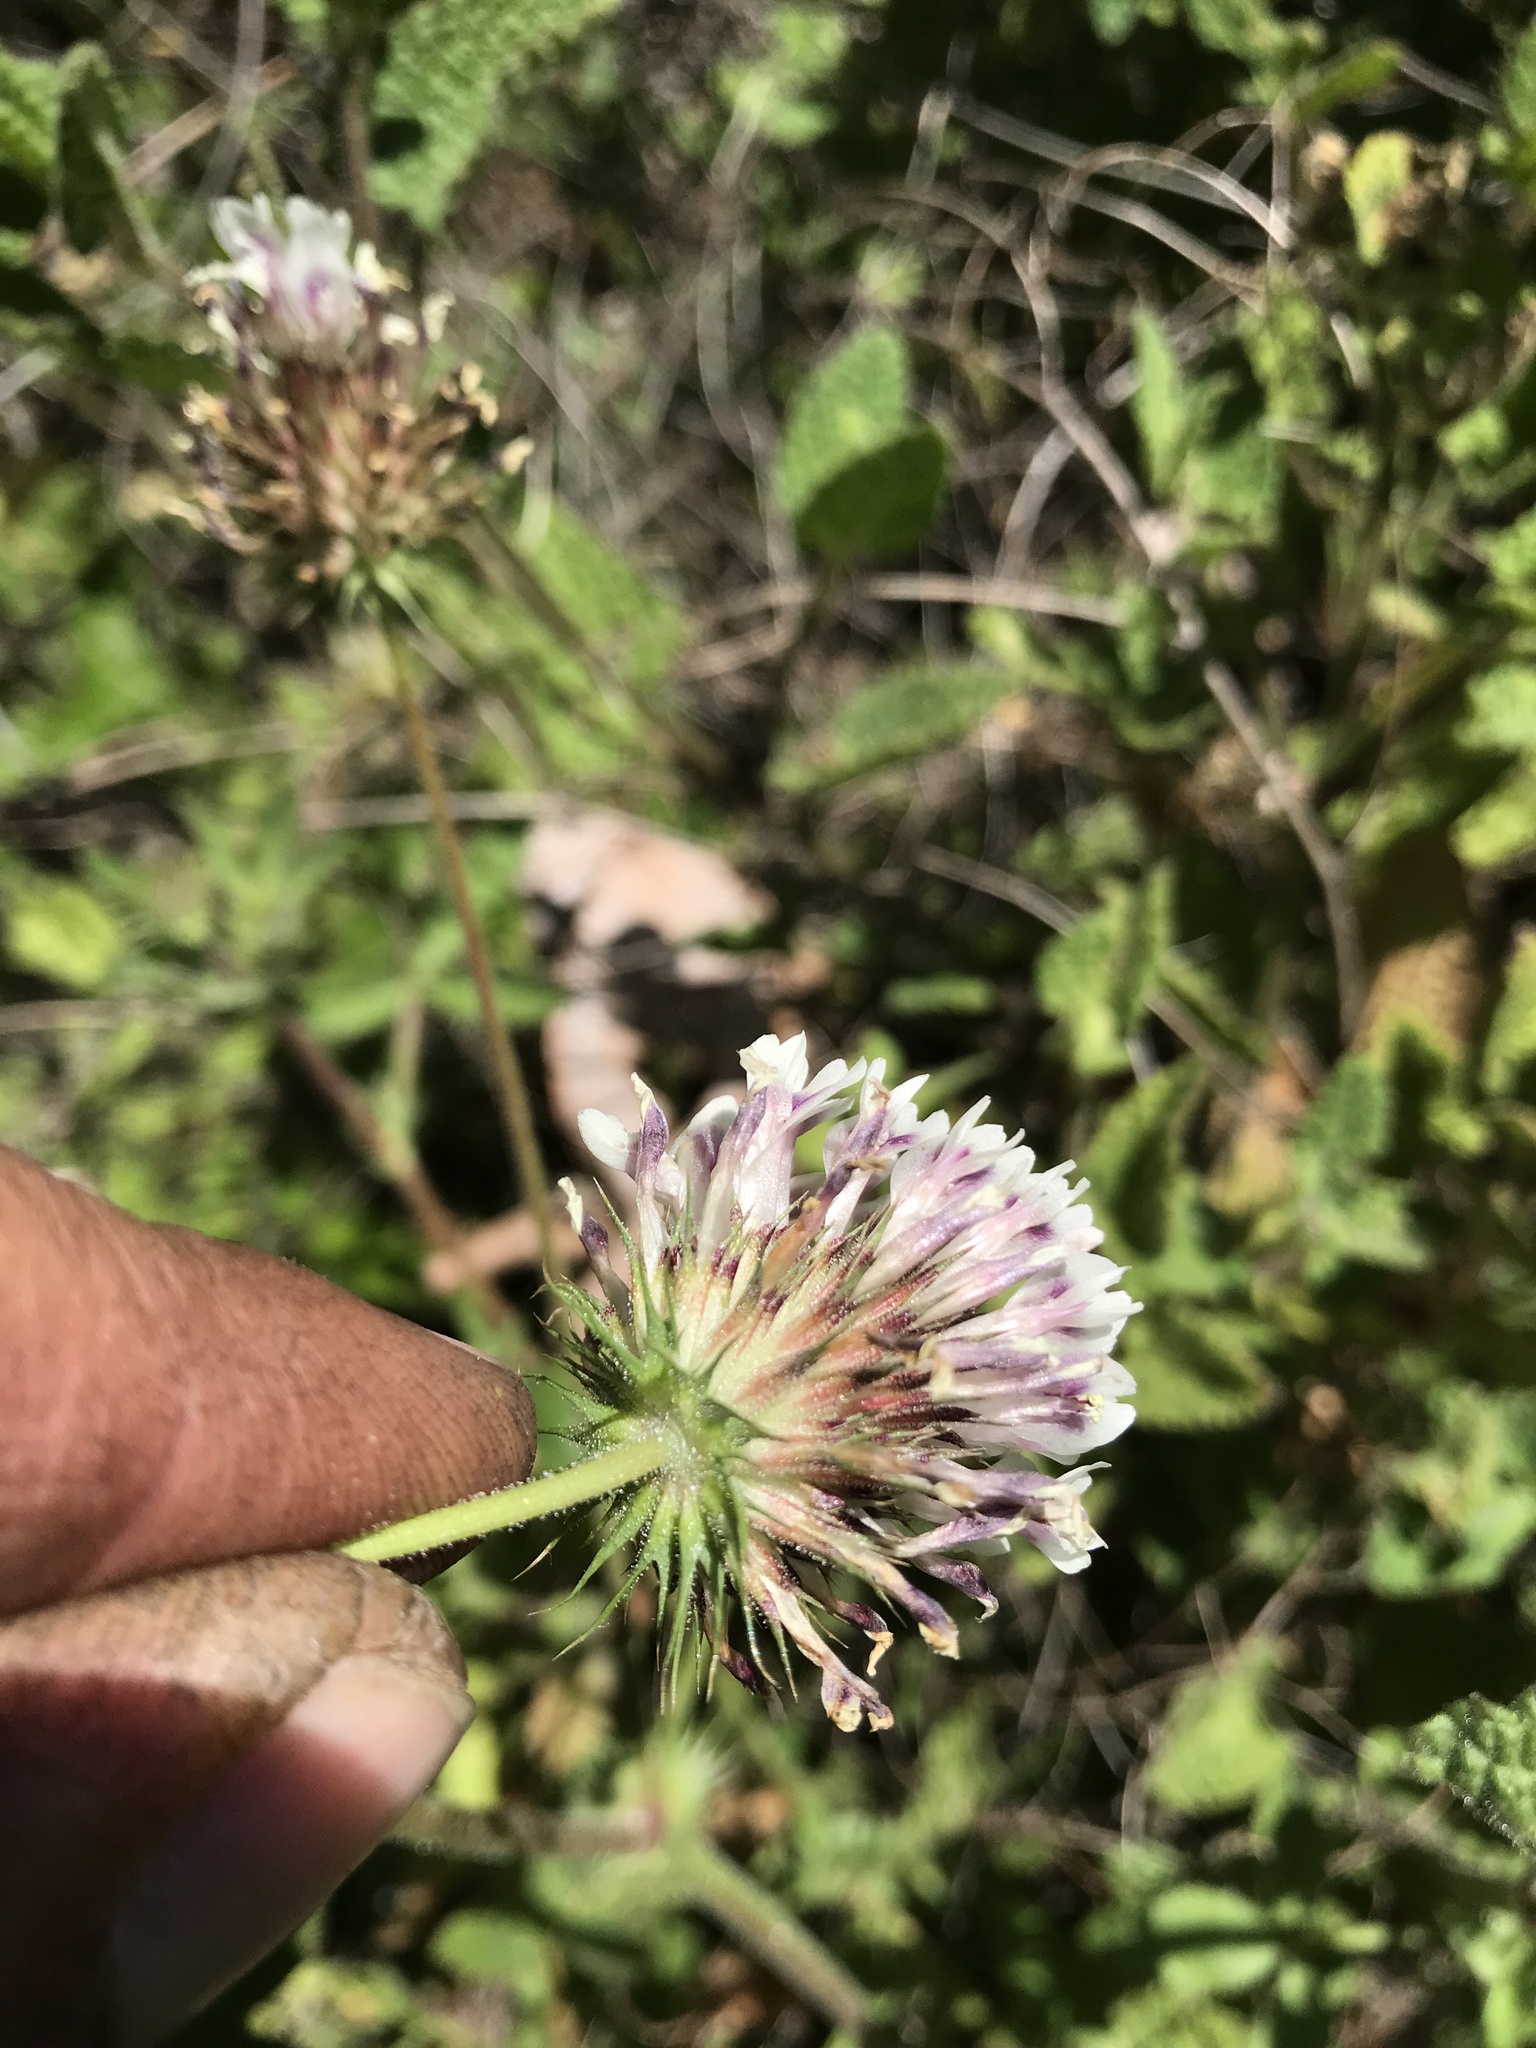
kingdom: Plantae
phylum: Tracheophyta
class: Magnoliopsida
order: Fabales
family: Fabaceae
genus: Trifolium
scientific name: Trifolium obtusiflorum
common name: Clammy clover
